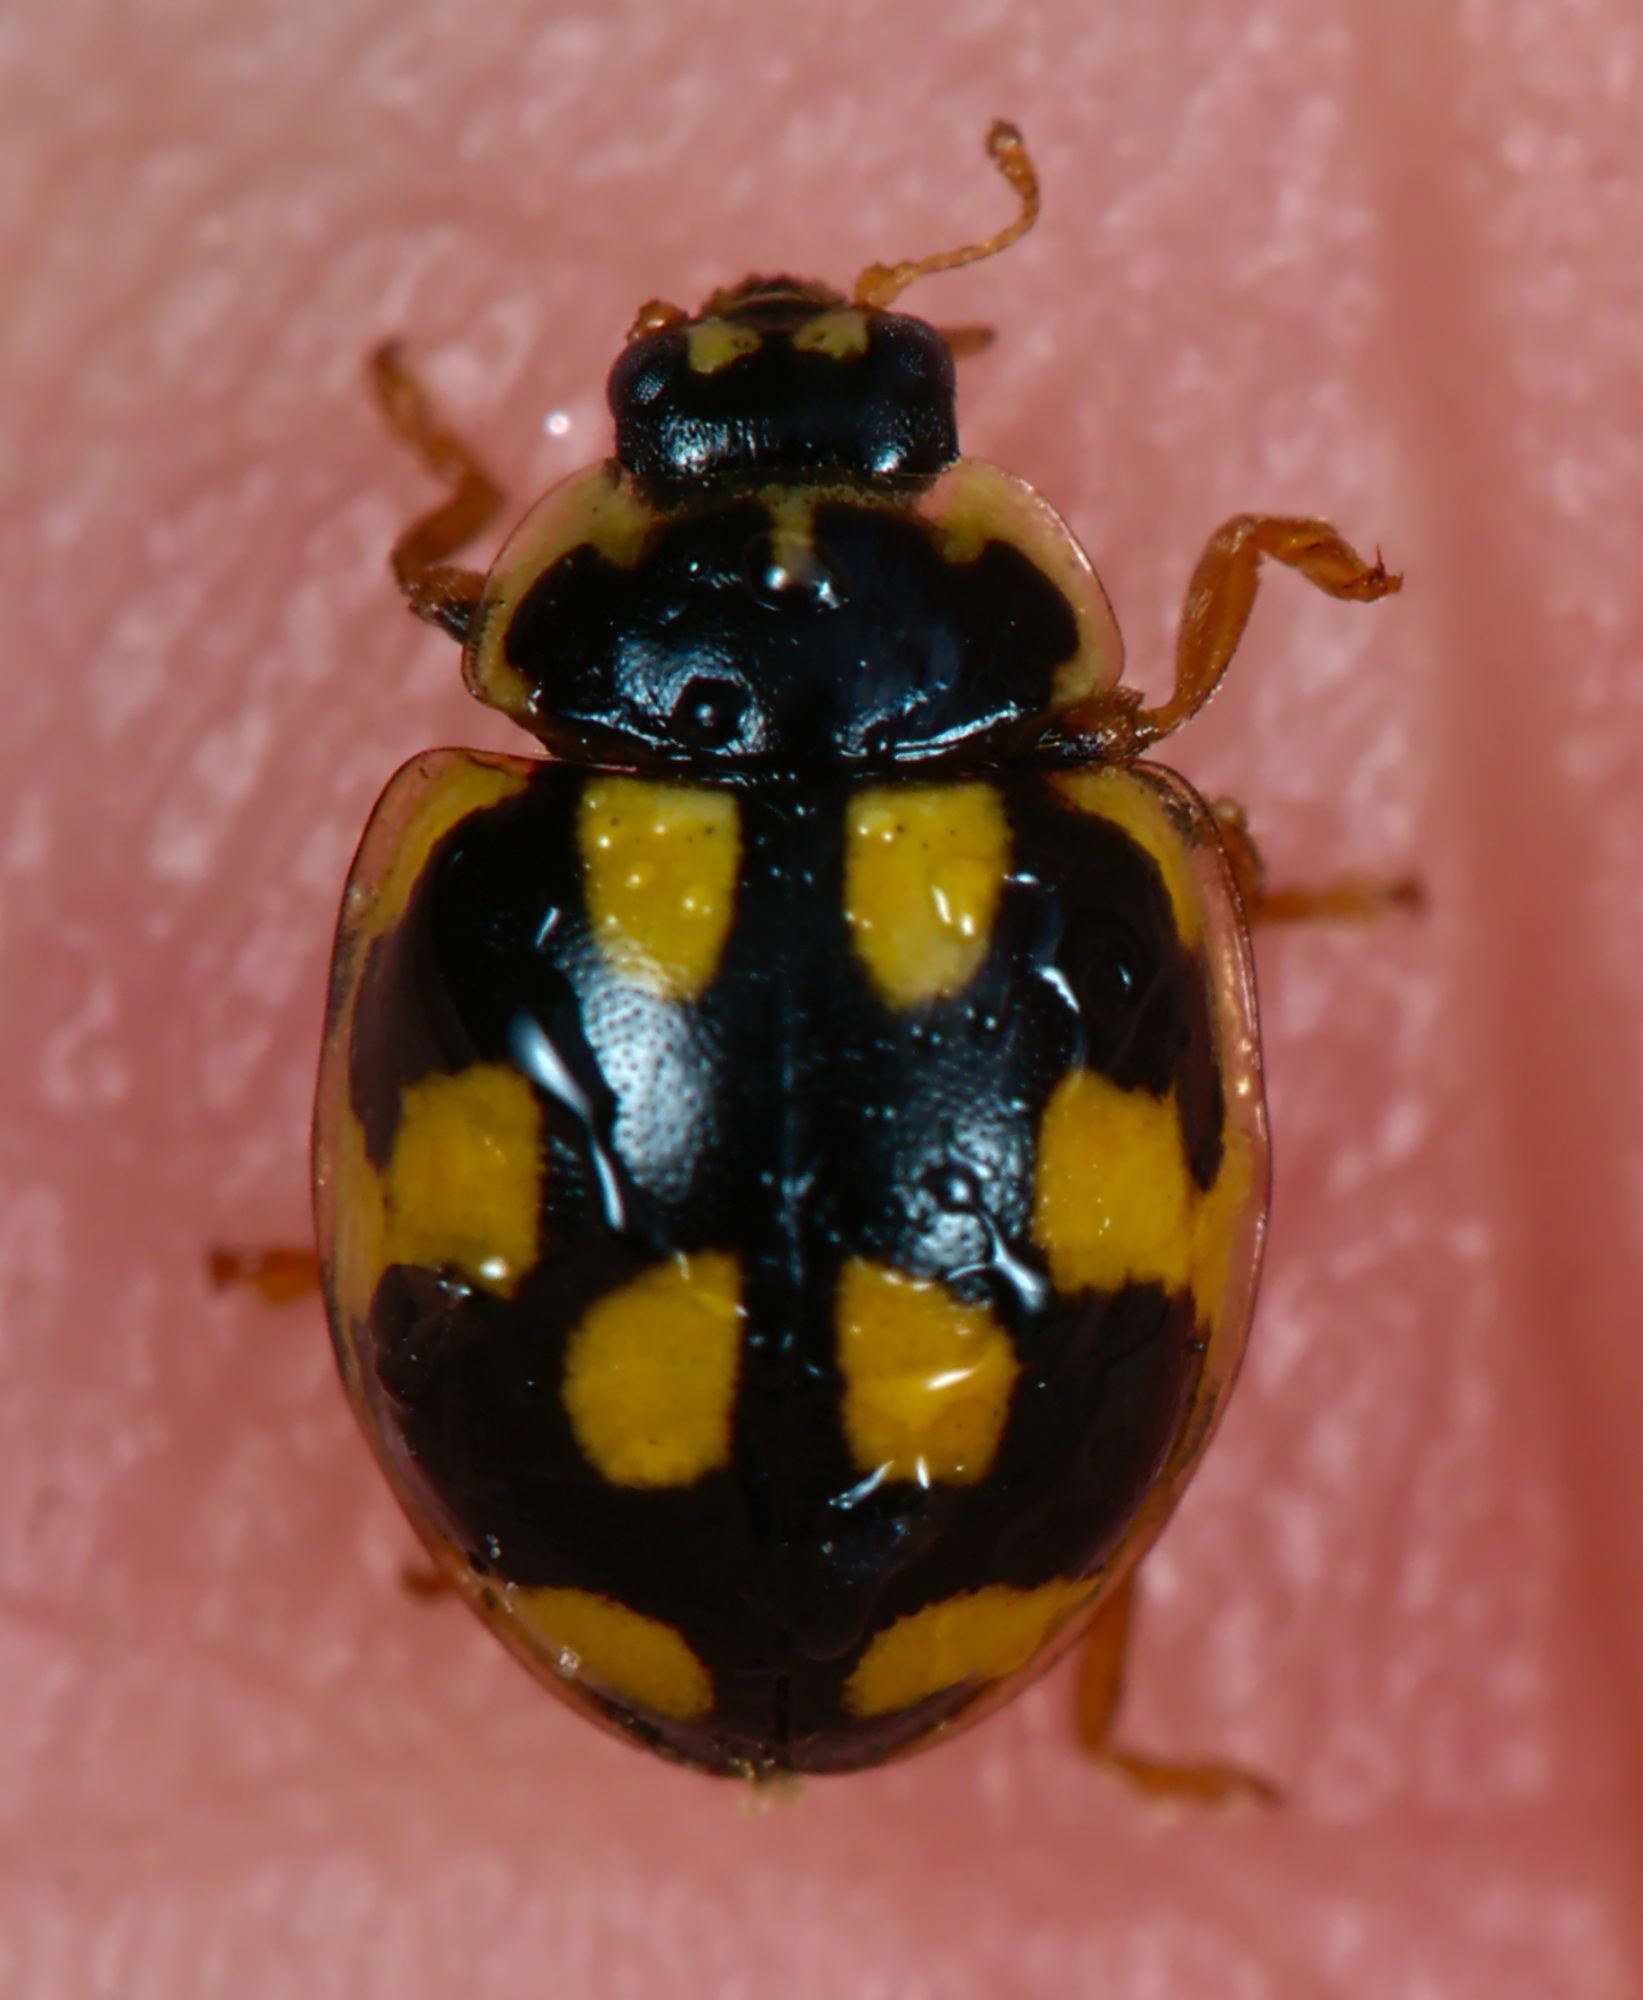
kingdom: Animalia
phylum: Arthropoda
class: Insecta
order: Coleoptera
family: Coccinellidae
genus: Propylaea
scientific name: Propylaea quatuordecimpunctata
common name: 14-spotted ladybird beetle
